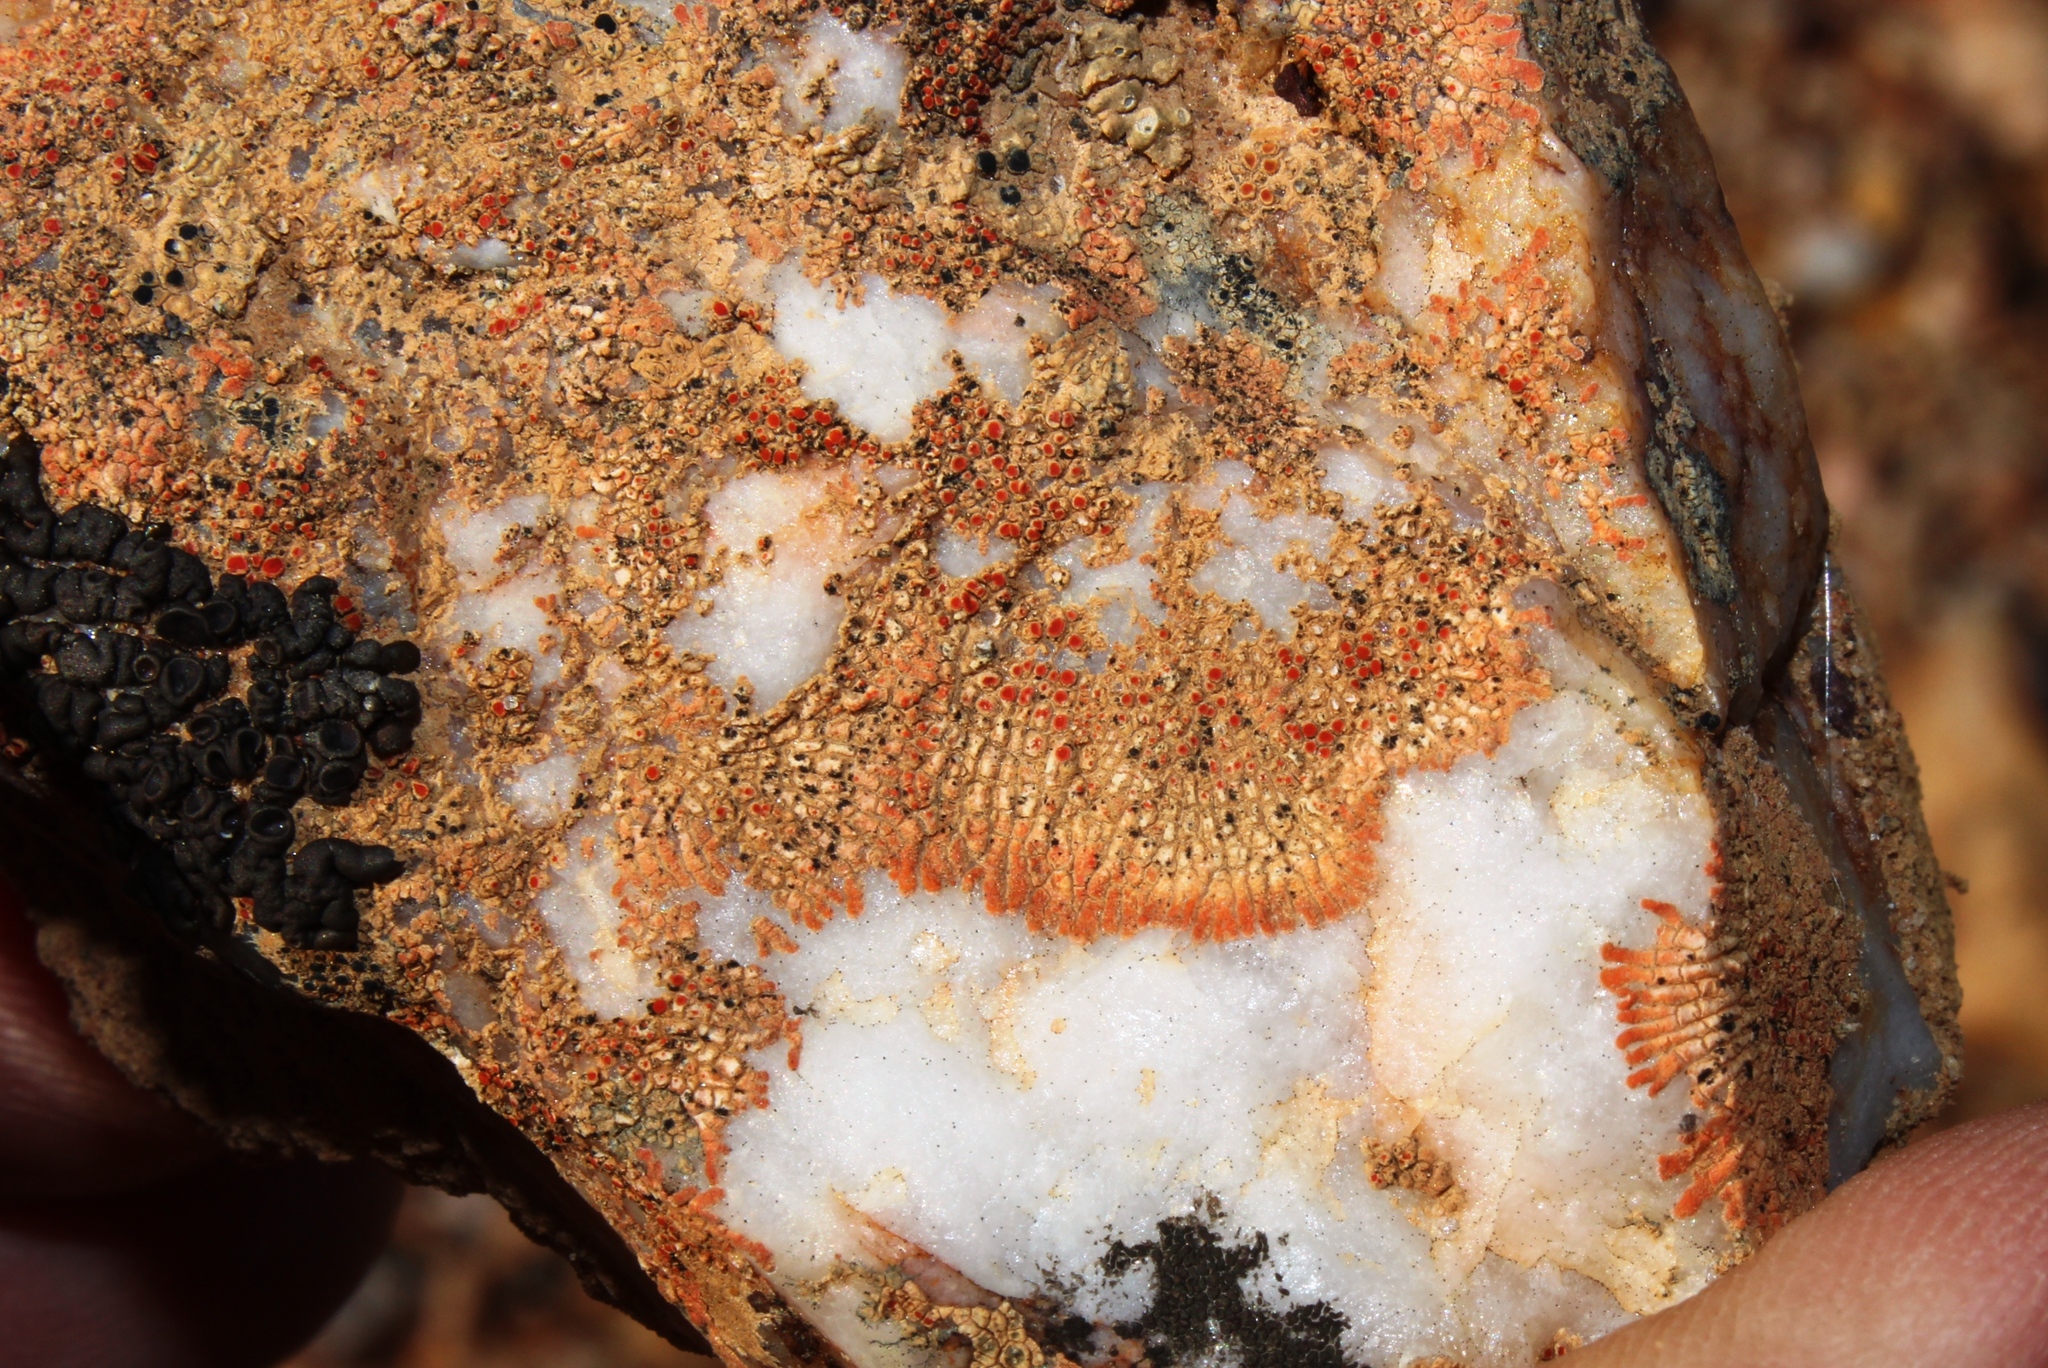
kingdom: Fungi
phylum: Ascomycota
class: Lecanoromycetes
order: Teloschistales
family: Teloschistaceae
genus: Stellarangia
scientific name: Stellarangia elegantissima
